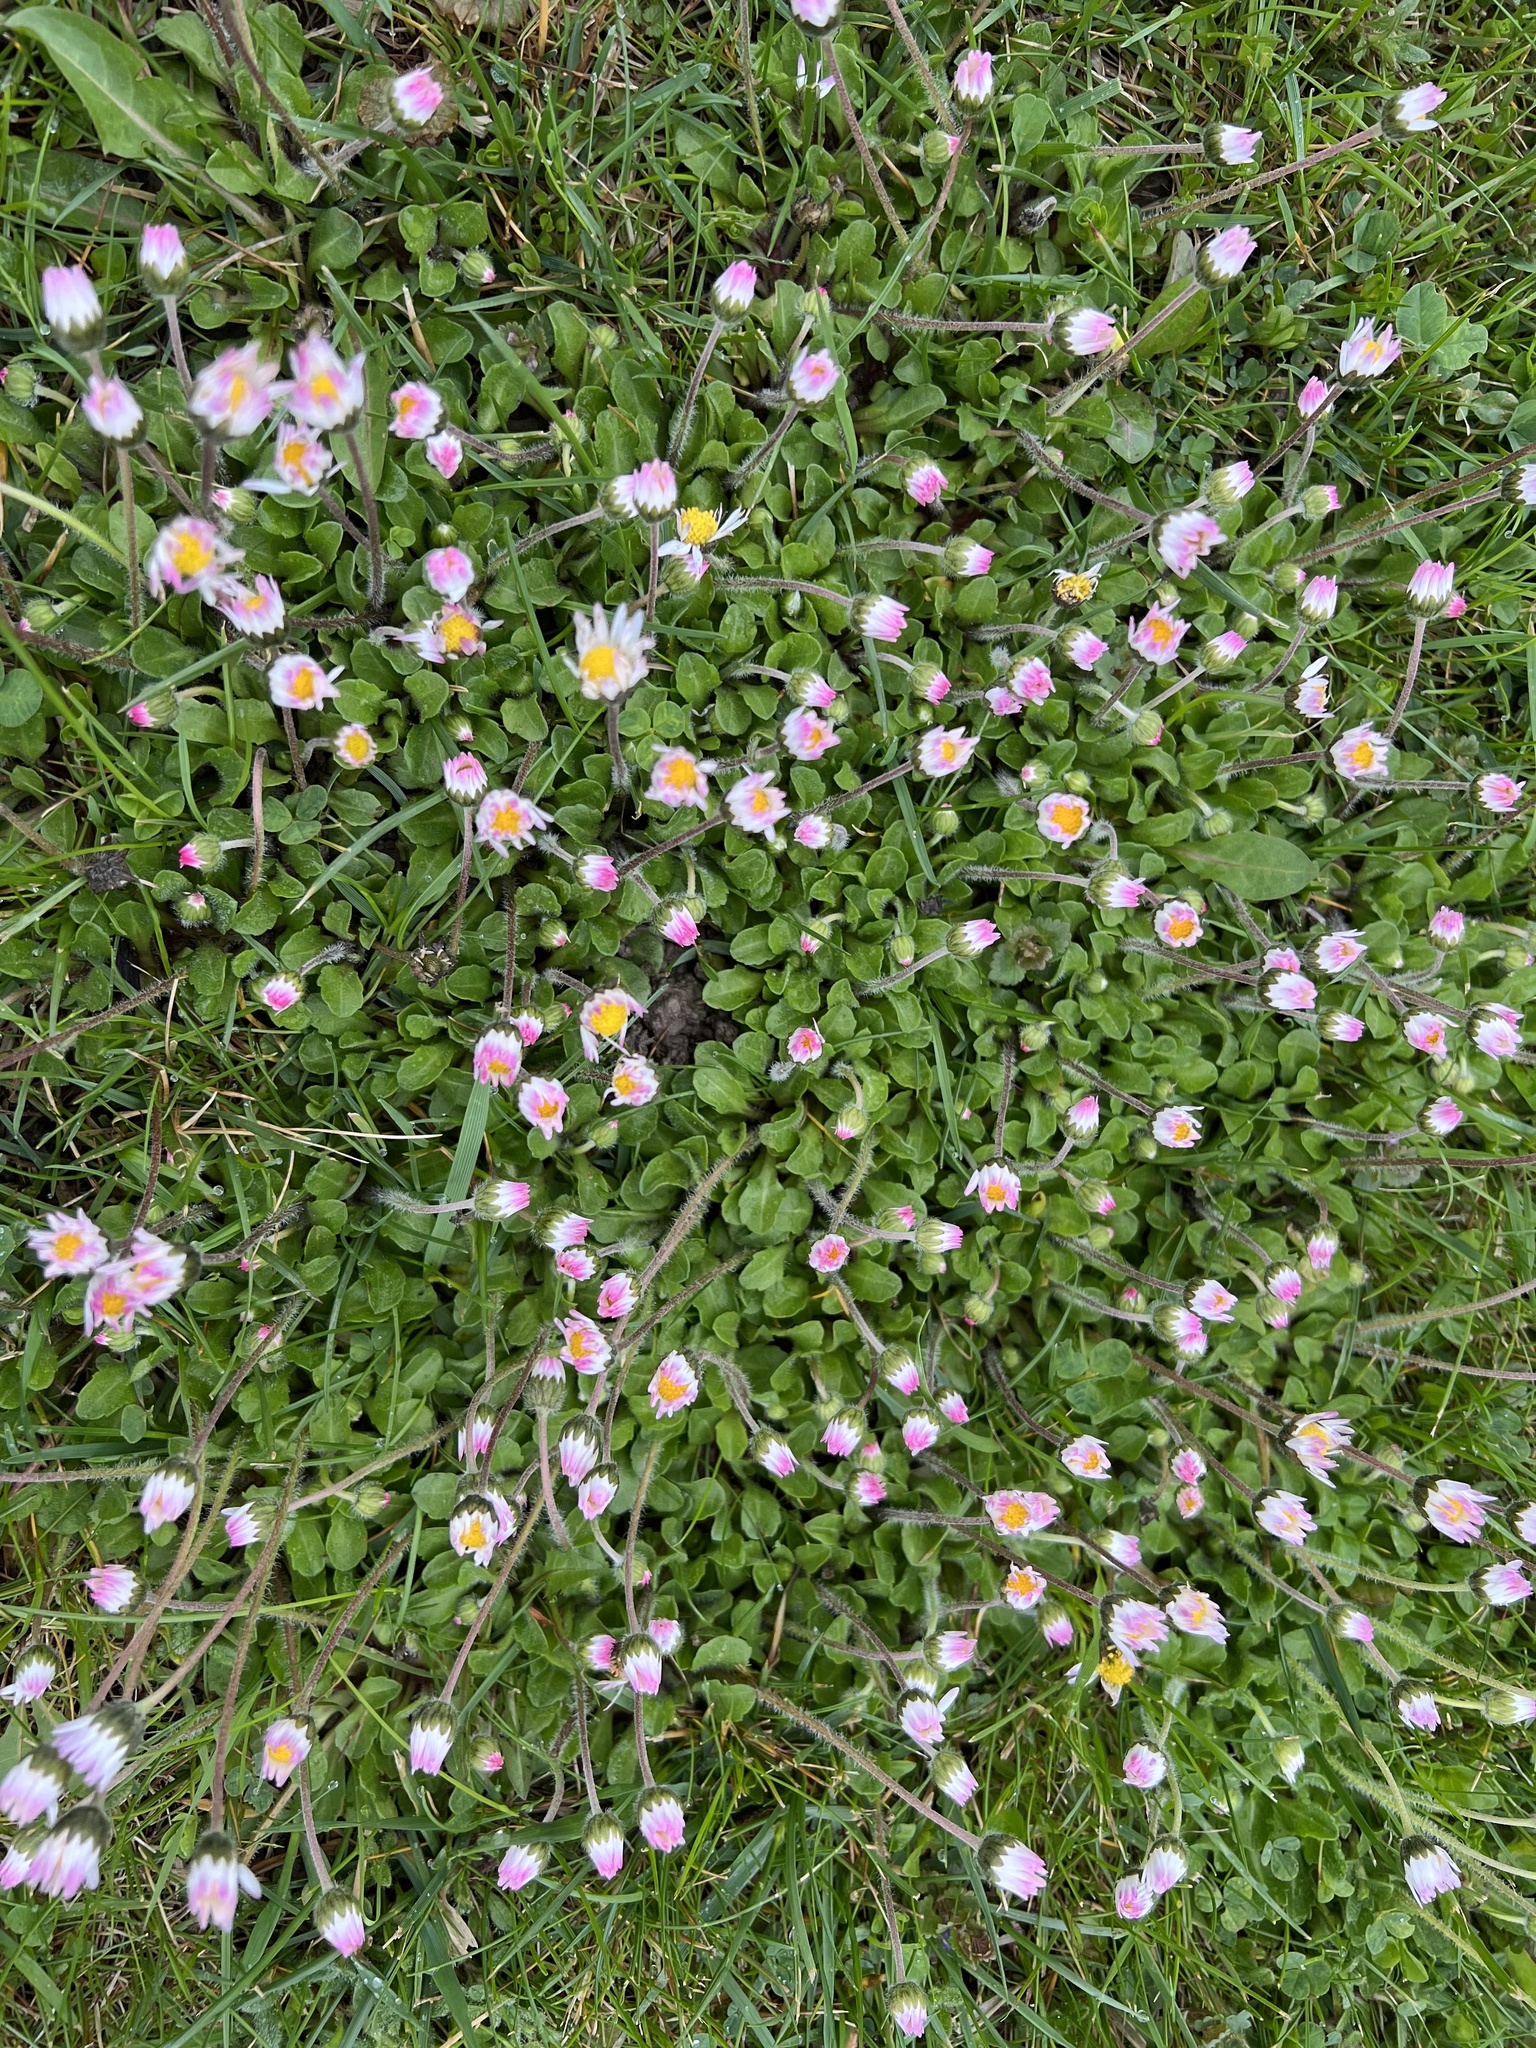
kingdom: Plantae
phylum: Tracheophyta
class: Magnoliopsida
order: Asterales
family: Asteraceae
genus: Bellis
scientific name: Bellis perennis
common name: Lawndaisy
